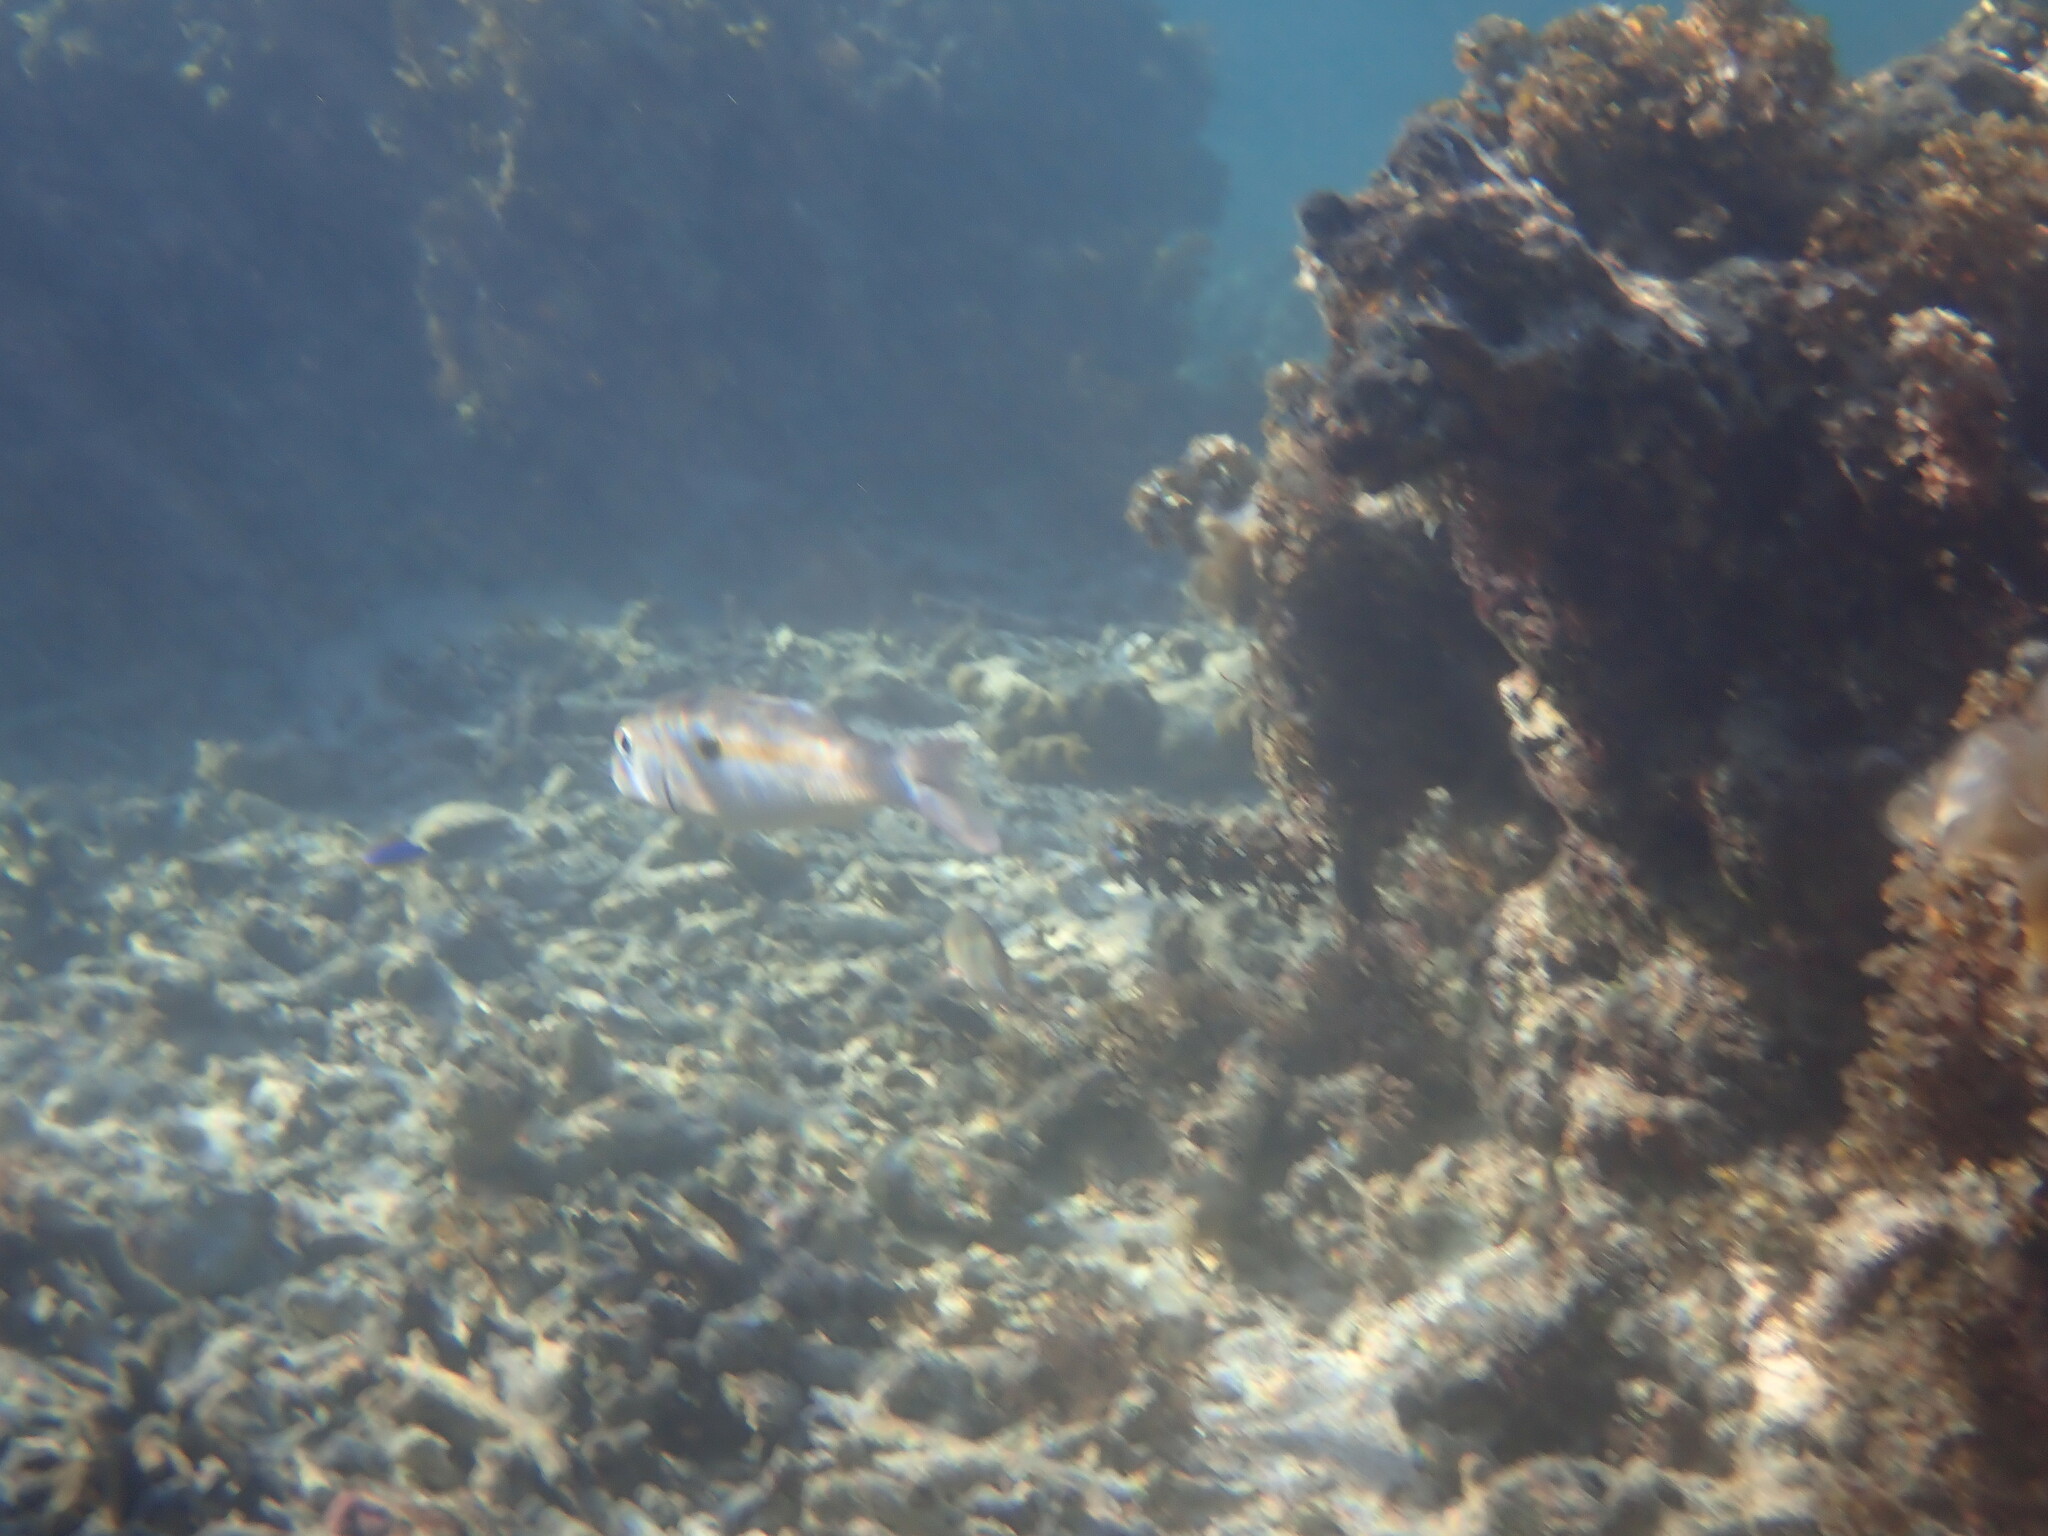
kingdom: Animalia
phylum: Chordata
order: Perciformes
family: Mullidae
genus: Mulloidichthys
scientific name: Mulloidichthys flavolineatus
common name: Yellowstripe goatfish
